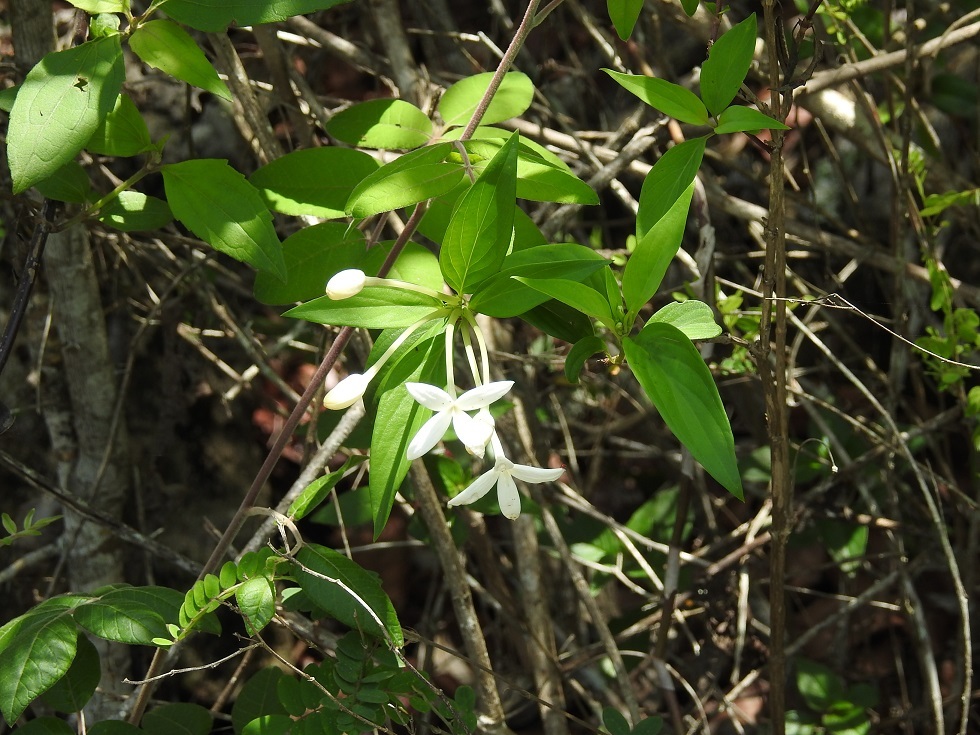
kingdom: Plantae
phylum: Tracheophyta
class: Magnoliopsida
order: Gentianales
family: Rubiaceae
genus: Bouvardia
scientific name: Bouvardia longiflora
